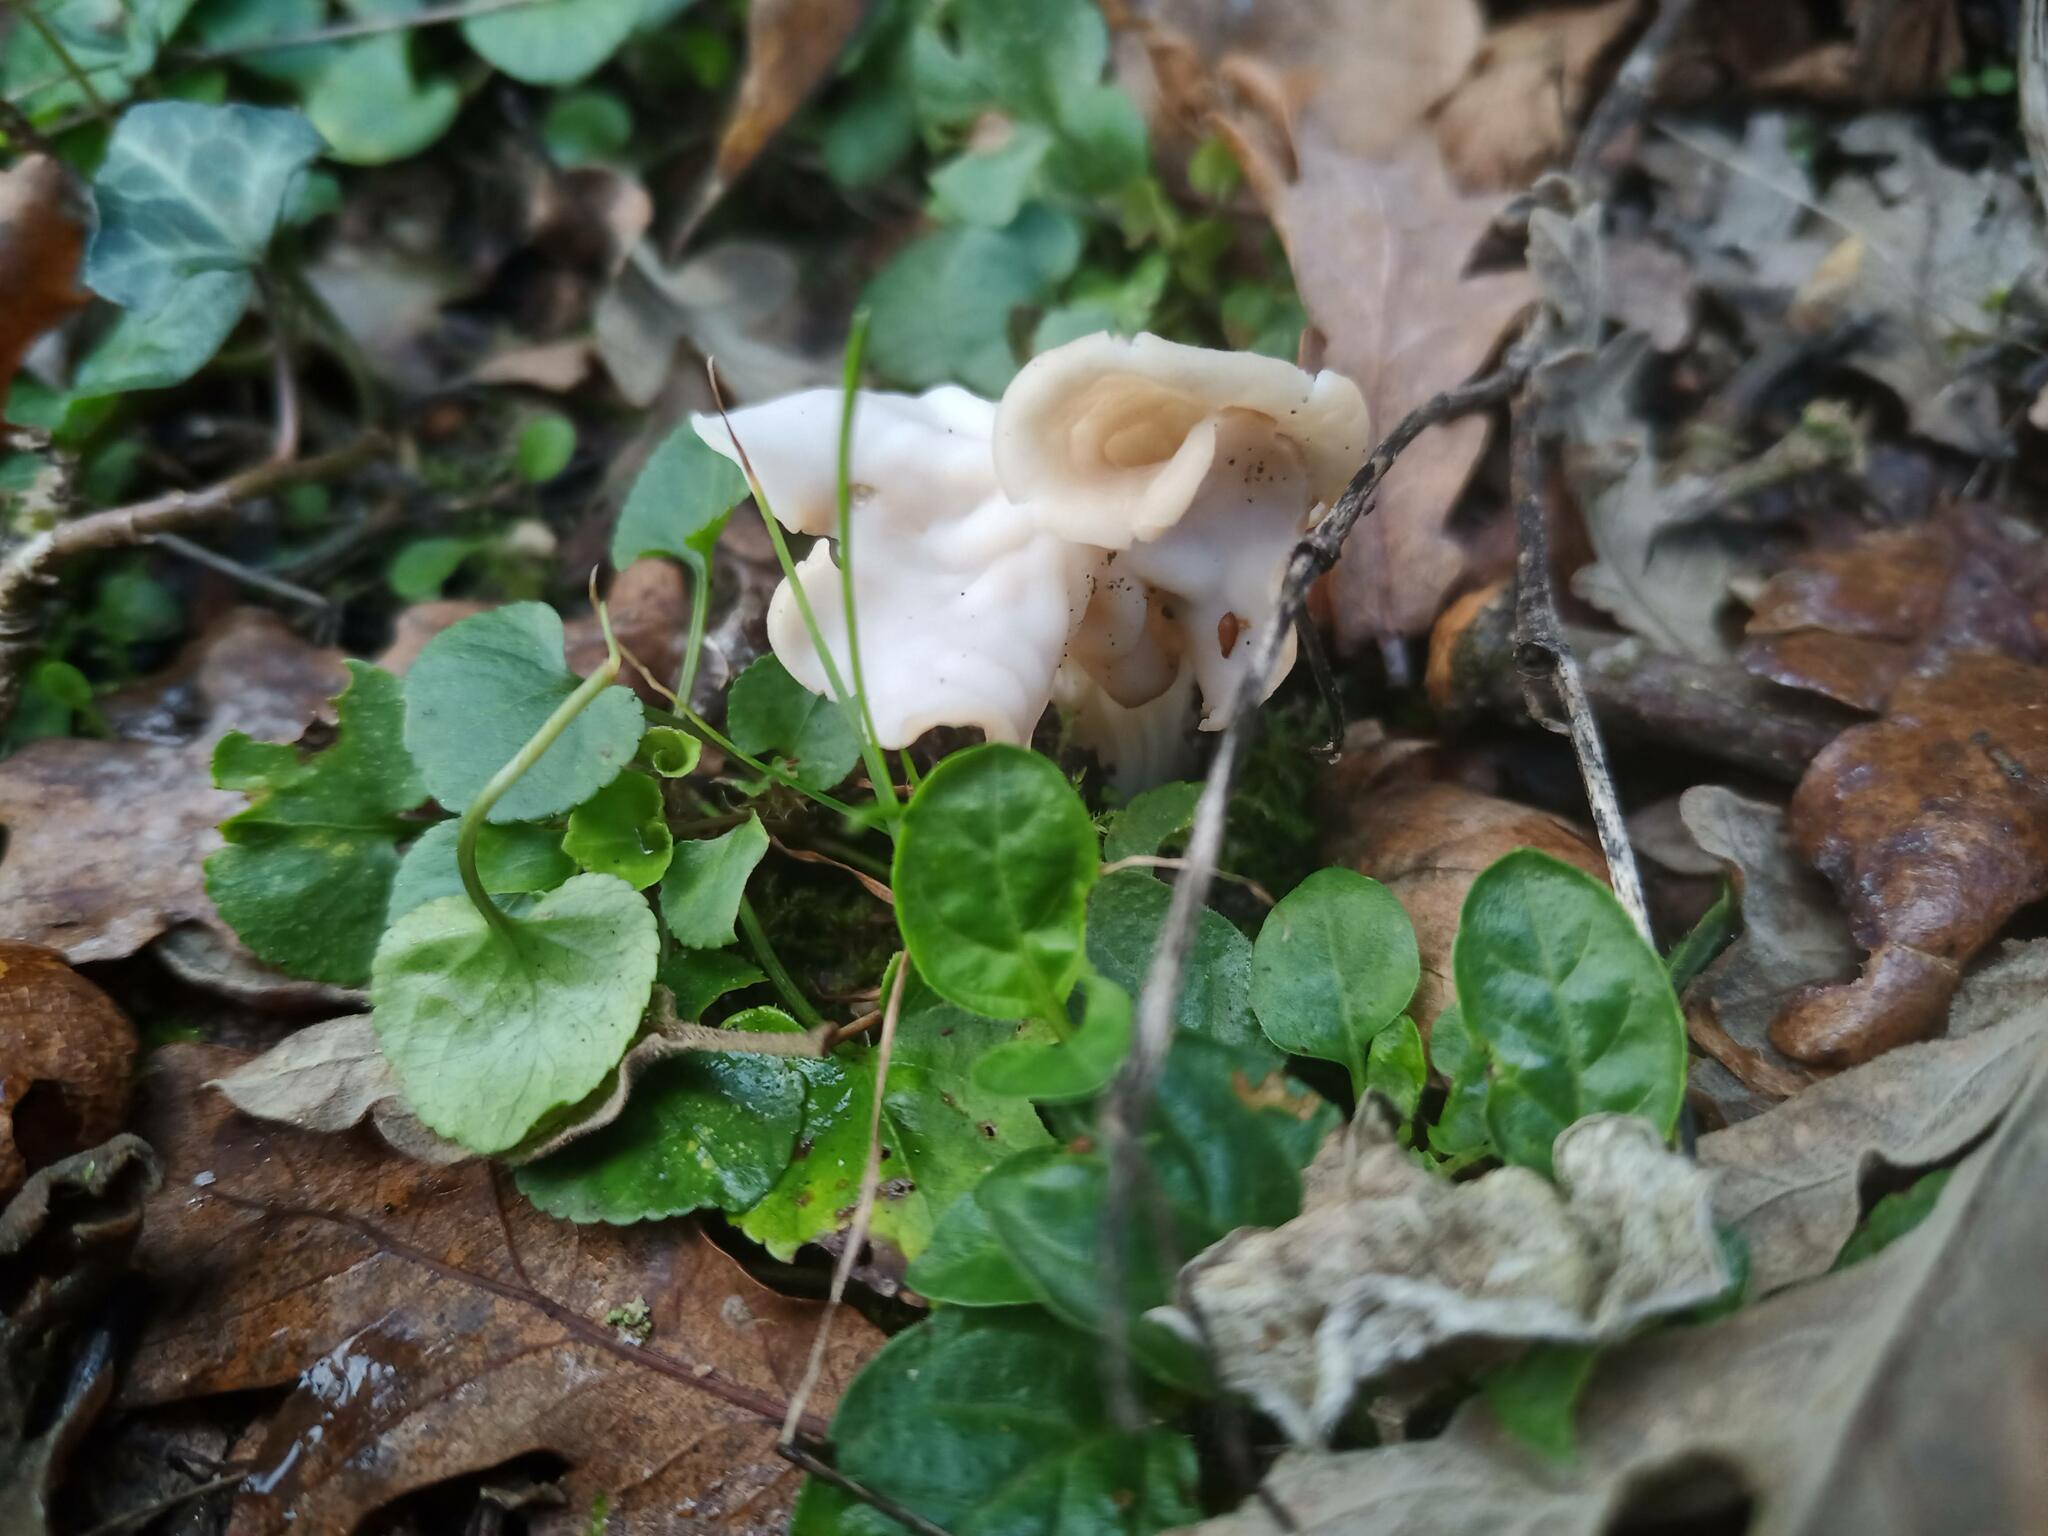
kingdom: Fungi
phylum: Ascomycota
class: Pezizomycetes
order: Pezizales
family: Helvellaceae
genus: Helvella
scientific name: Helvella crispa
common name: White saddle
